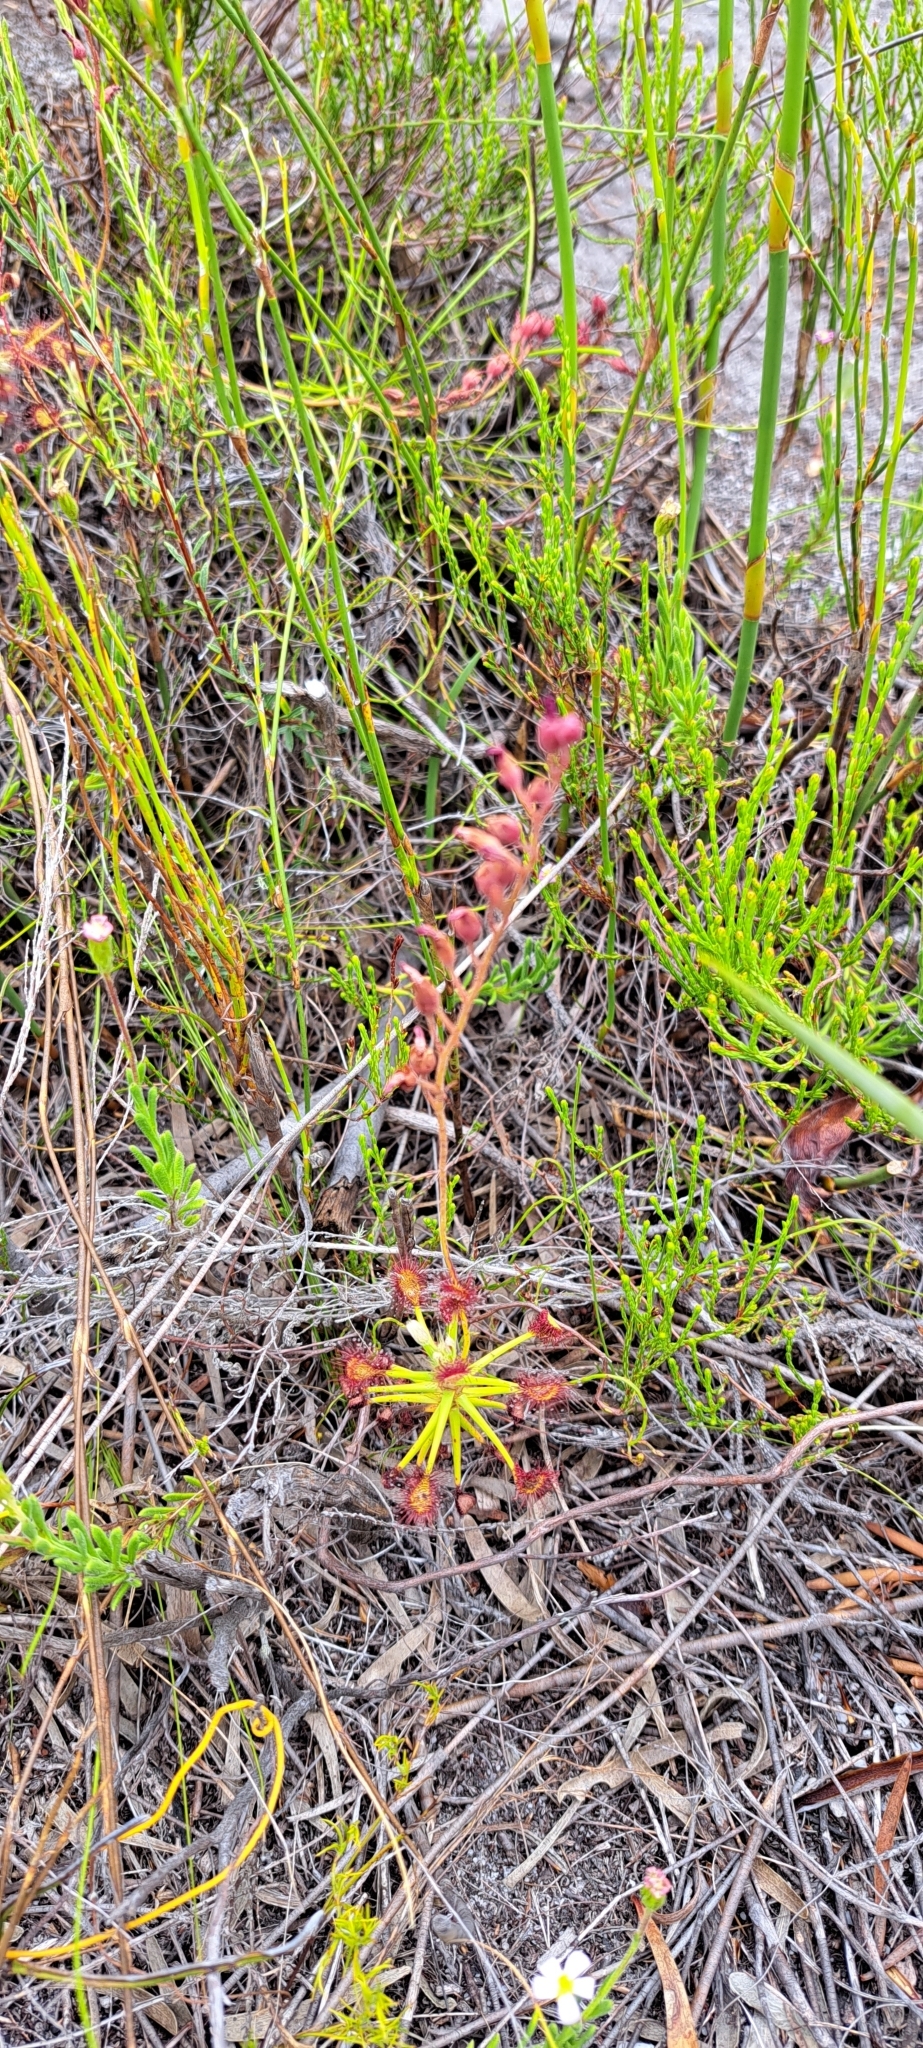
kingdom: Plantae
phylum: Tracheophyta
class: Magnoliopsida
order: Caryophyllales
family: Droseraceae
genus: Drosera
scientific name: Drosera glabripes
